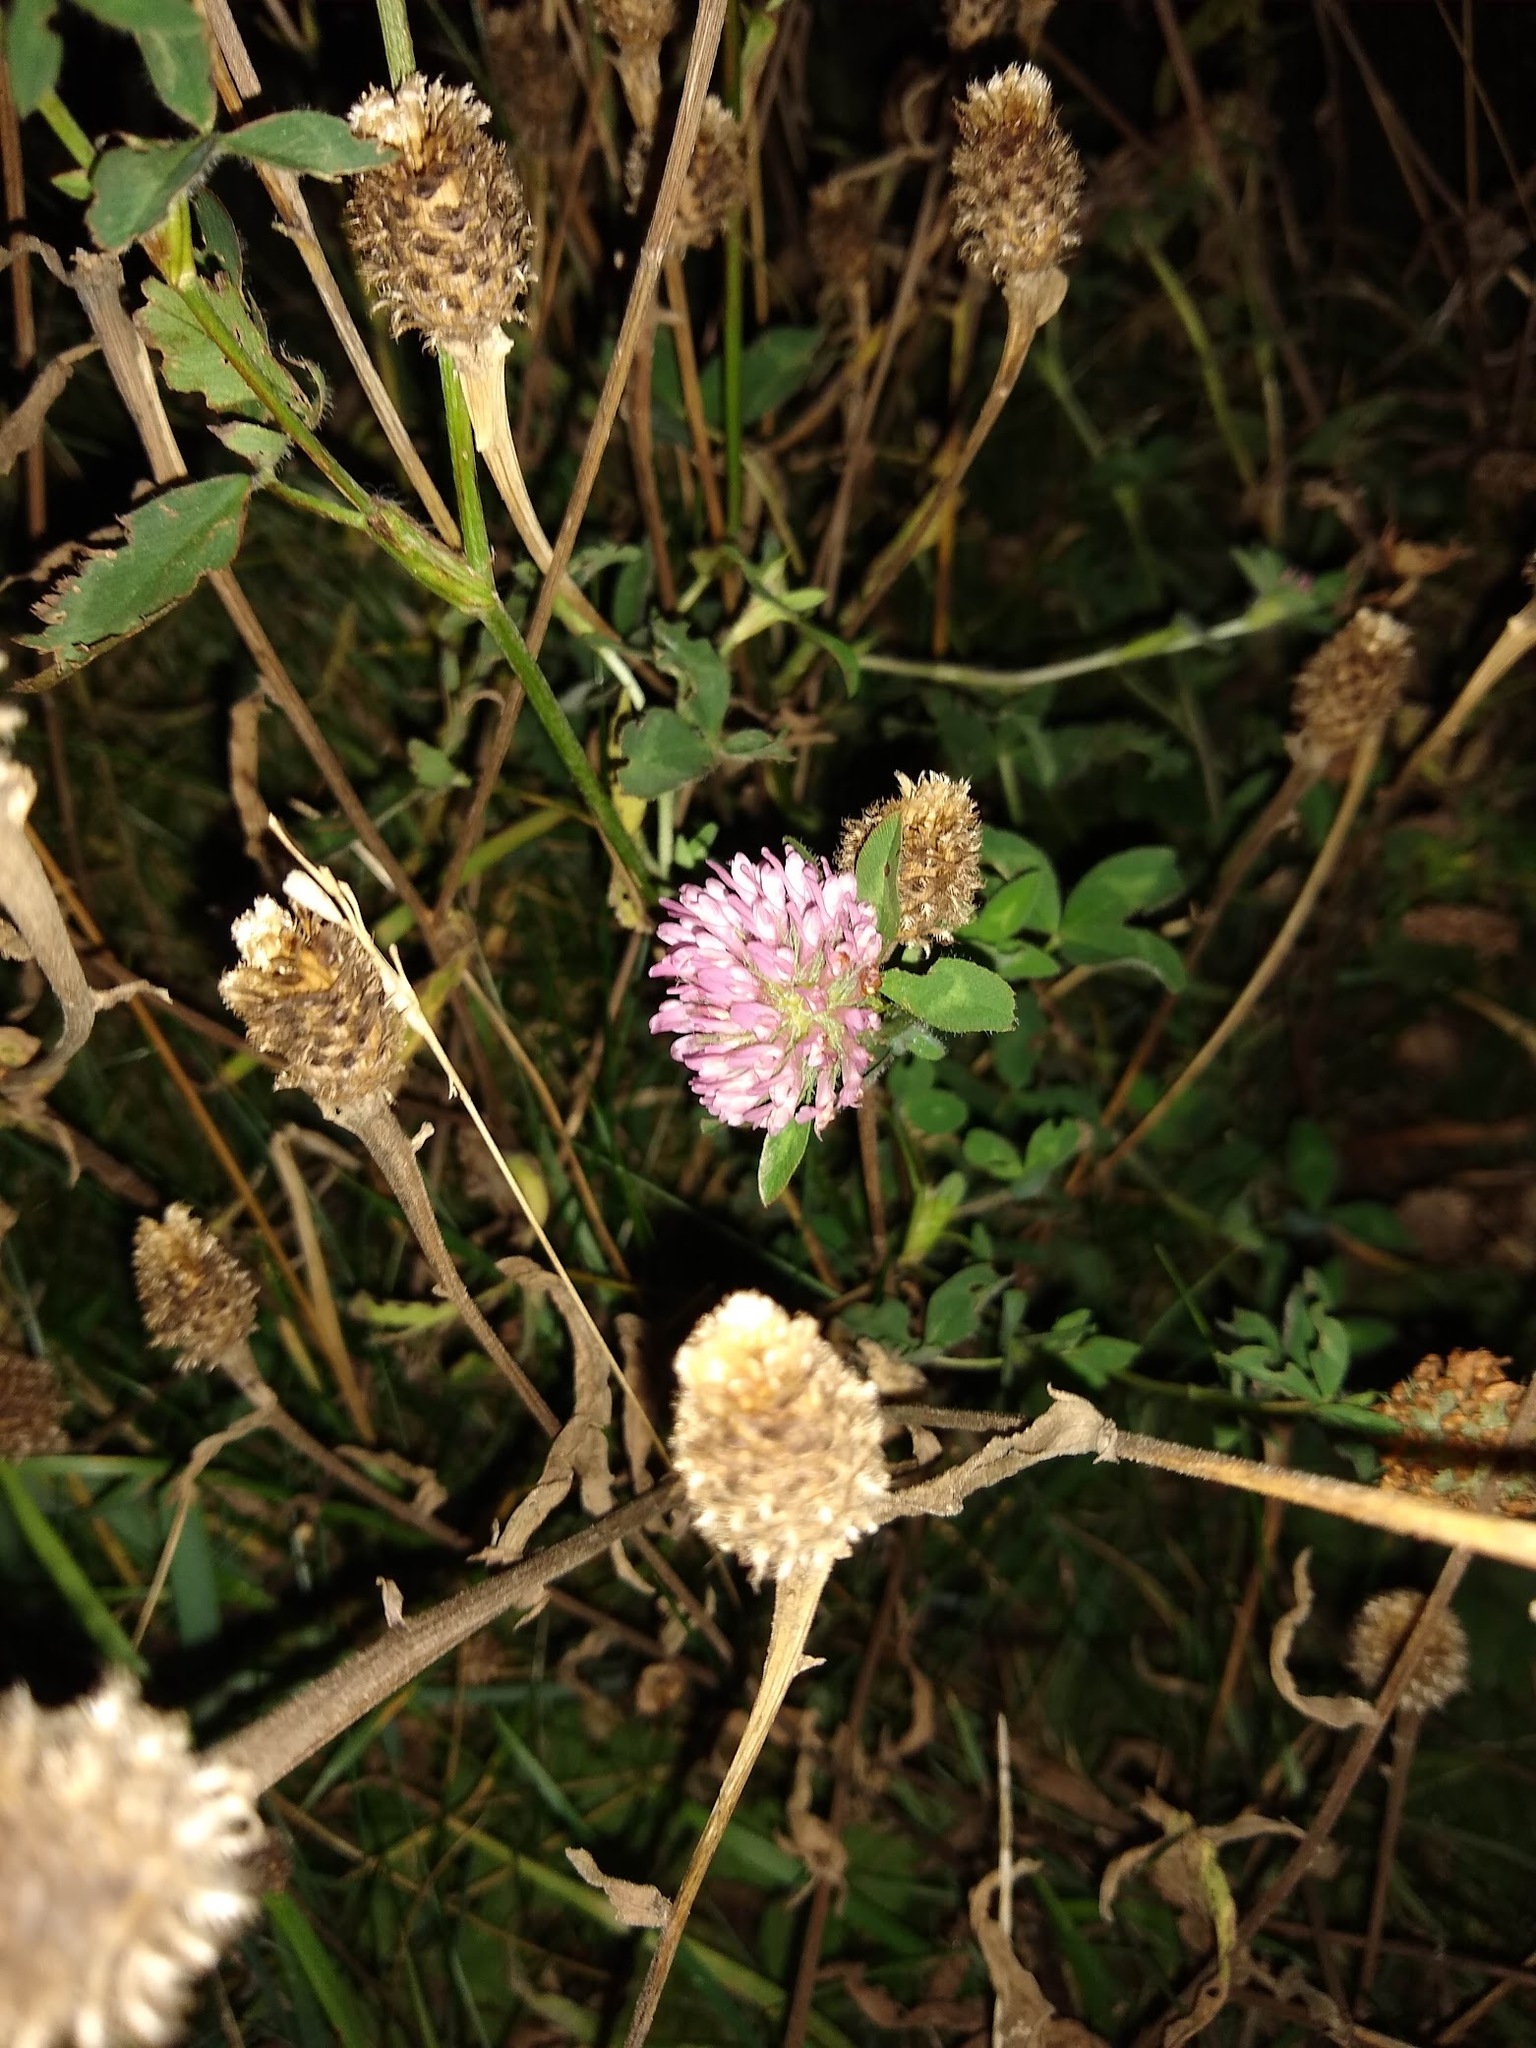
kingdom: Plantae
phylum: Tracheophyta
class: Magnoliopsida
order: Fabales
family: Fabaceae
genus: Trifolium
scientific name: Trifolium pratense
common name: Red clover
